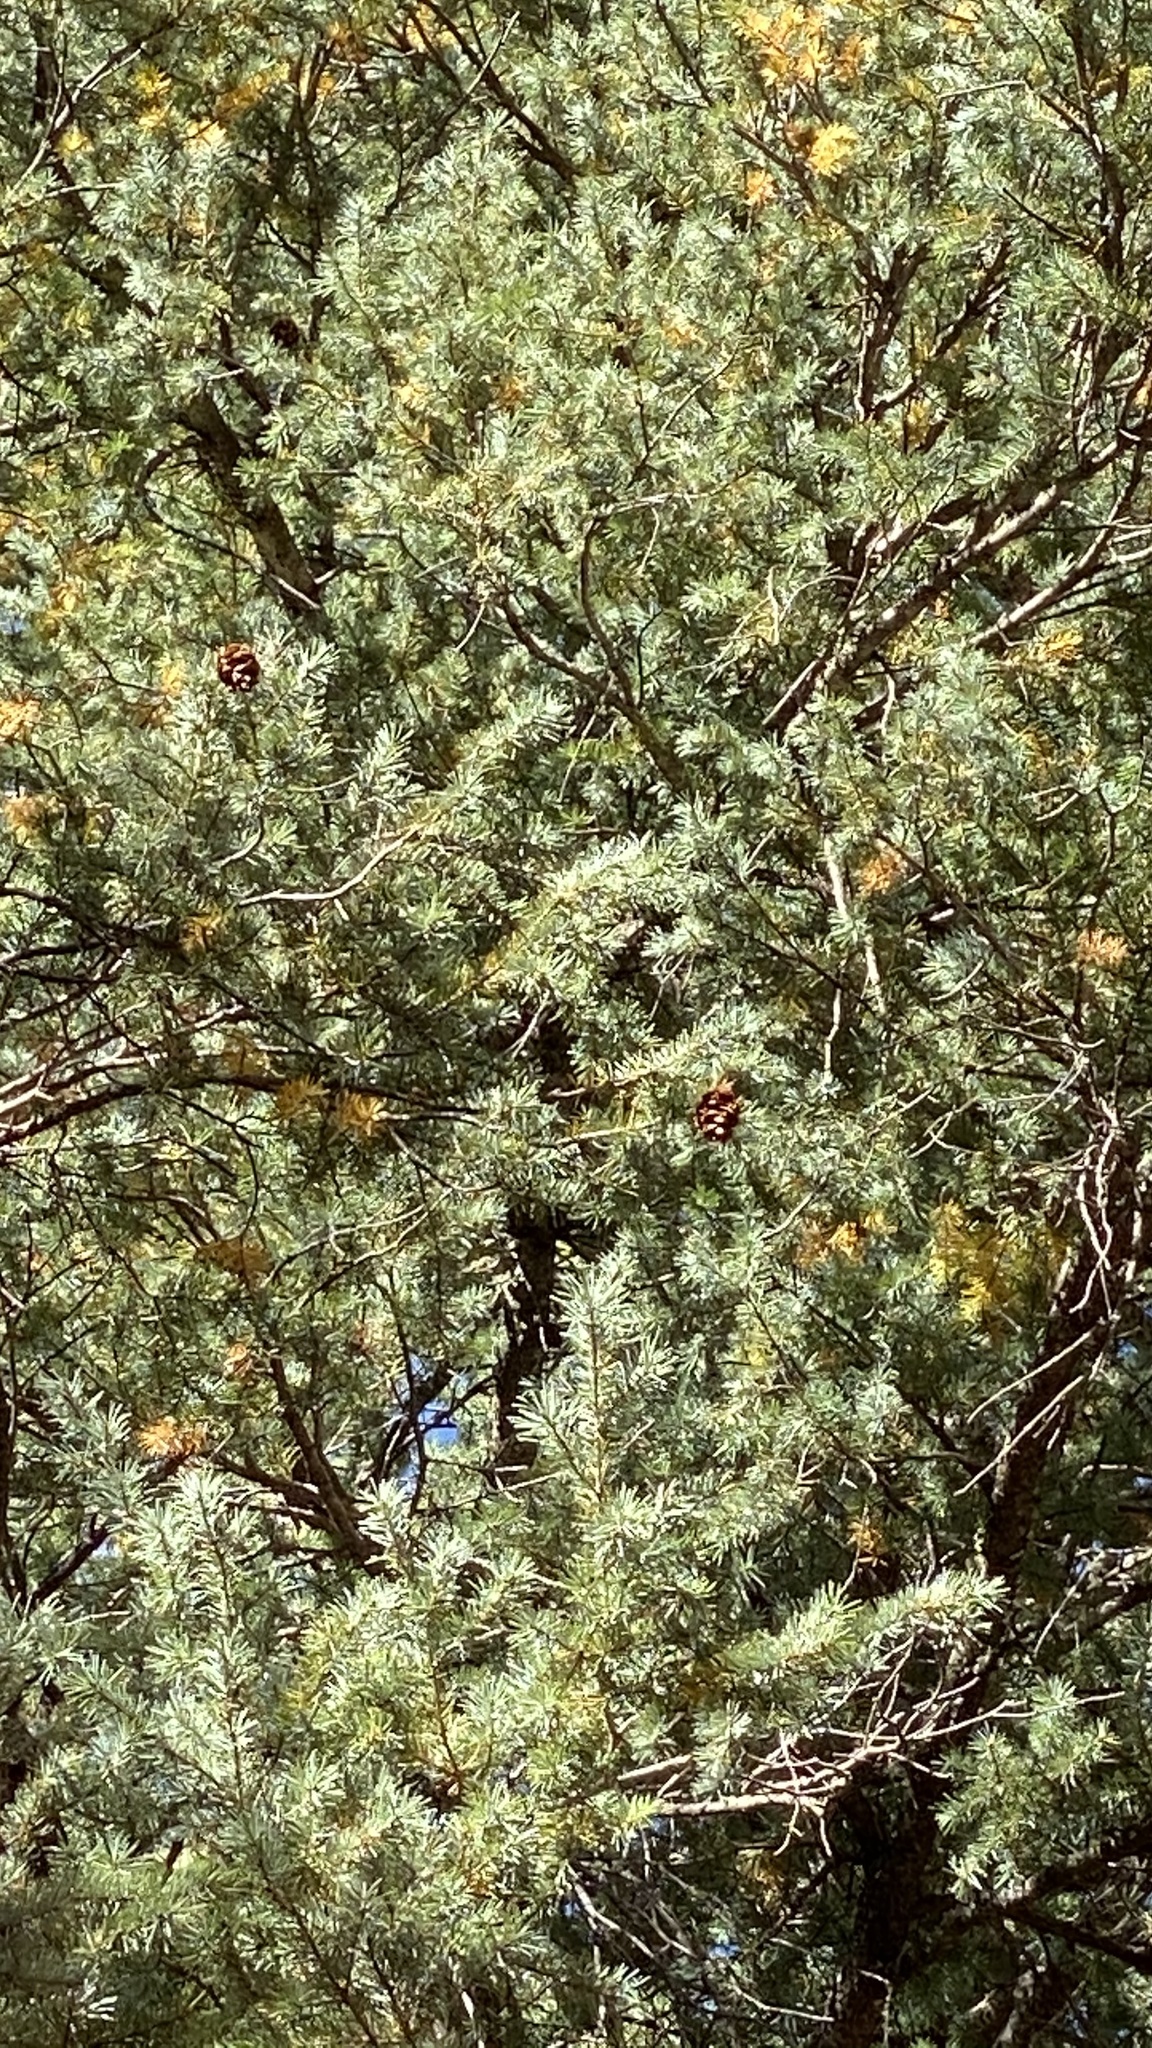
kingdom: Plantae
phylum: Tracheophyta
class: Pinopsida
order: Pinales
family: Pinaceae
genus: Pseudotsuga
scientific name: Pseudotsuga menziesii
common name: Douglas fir
